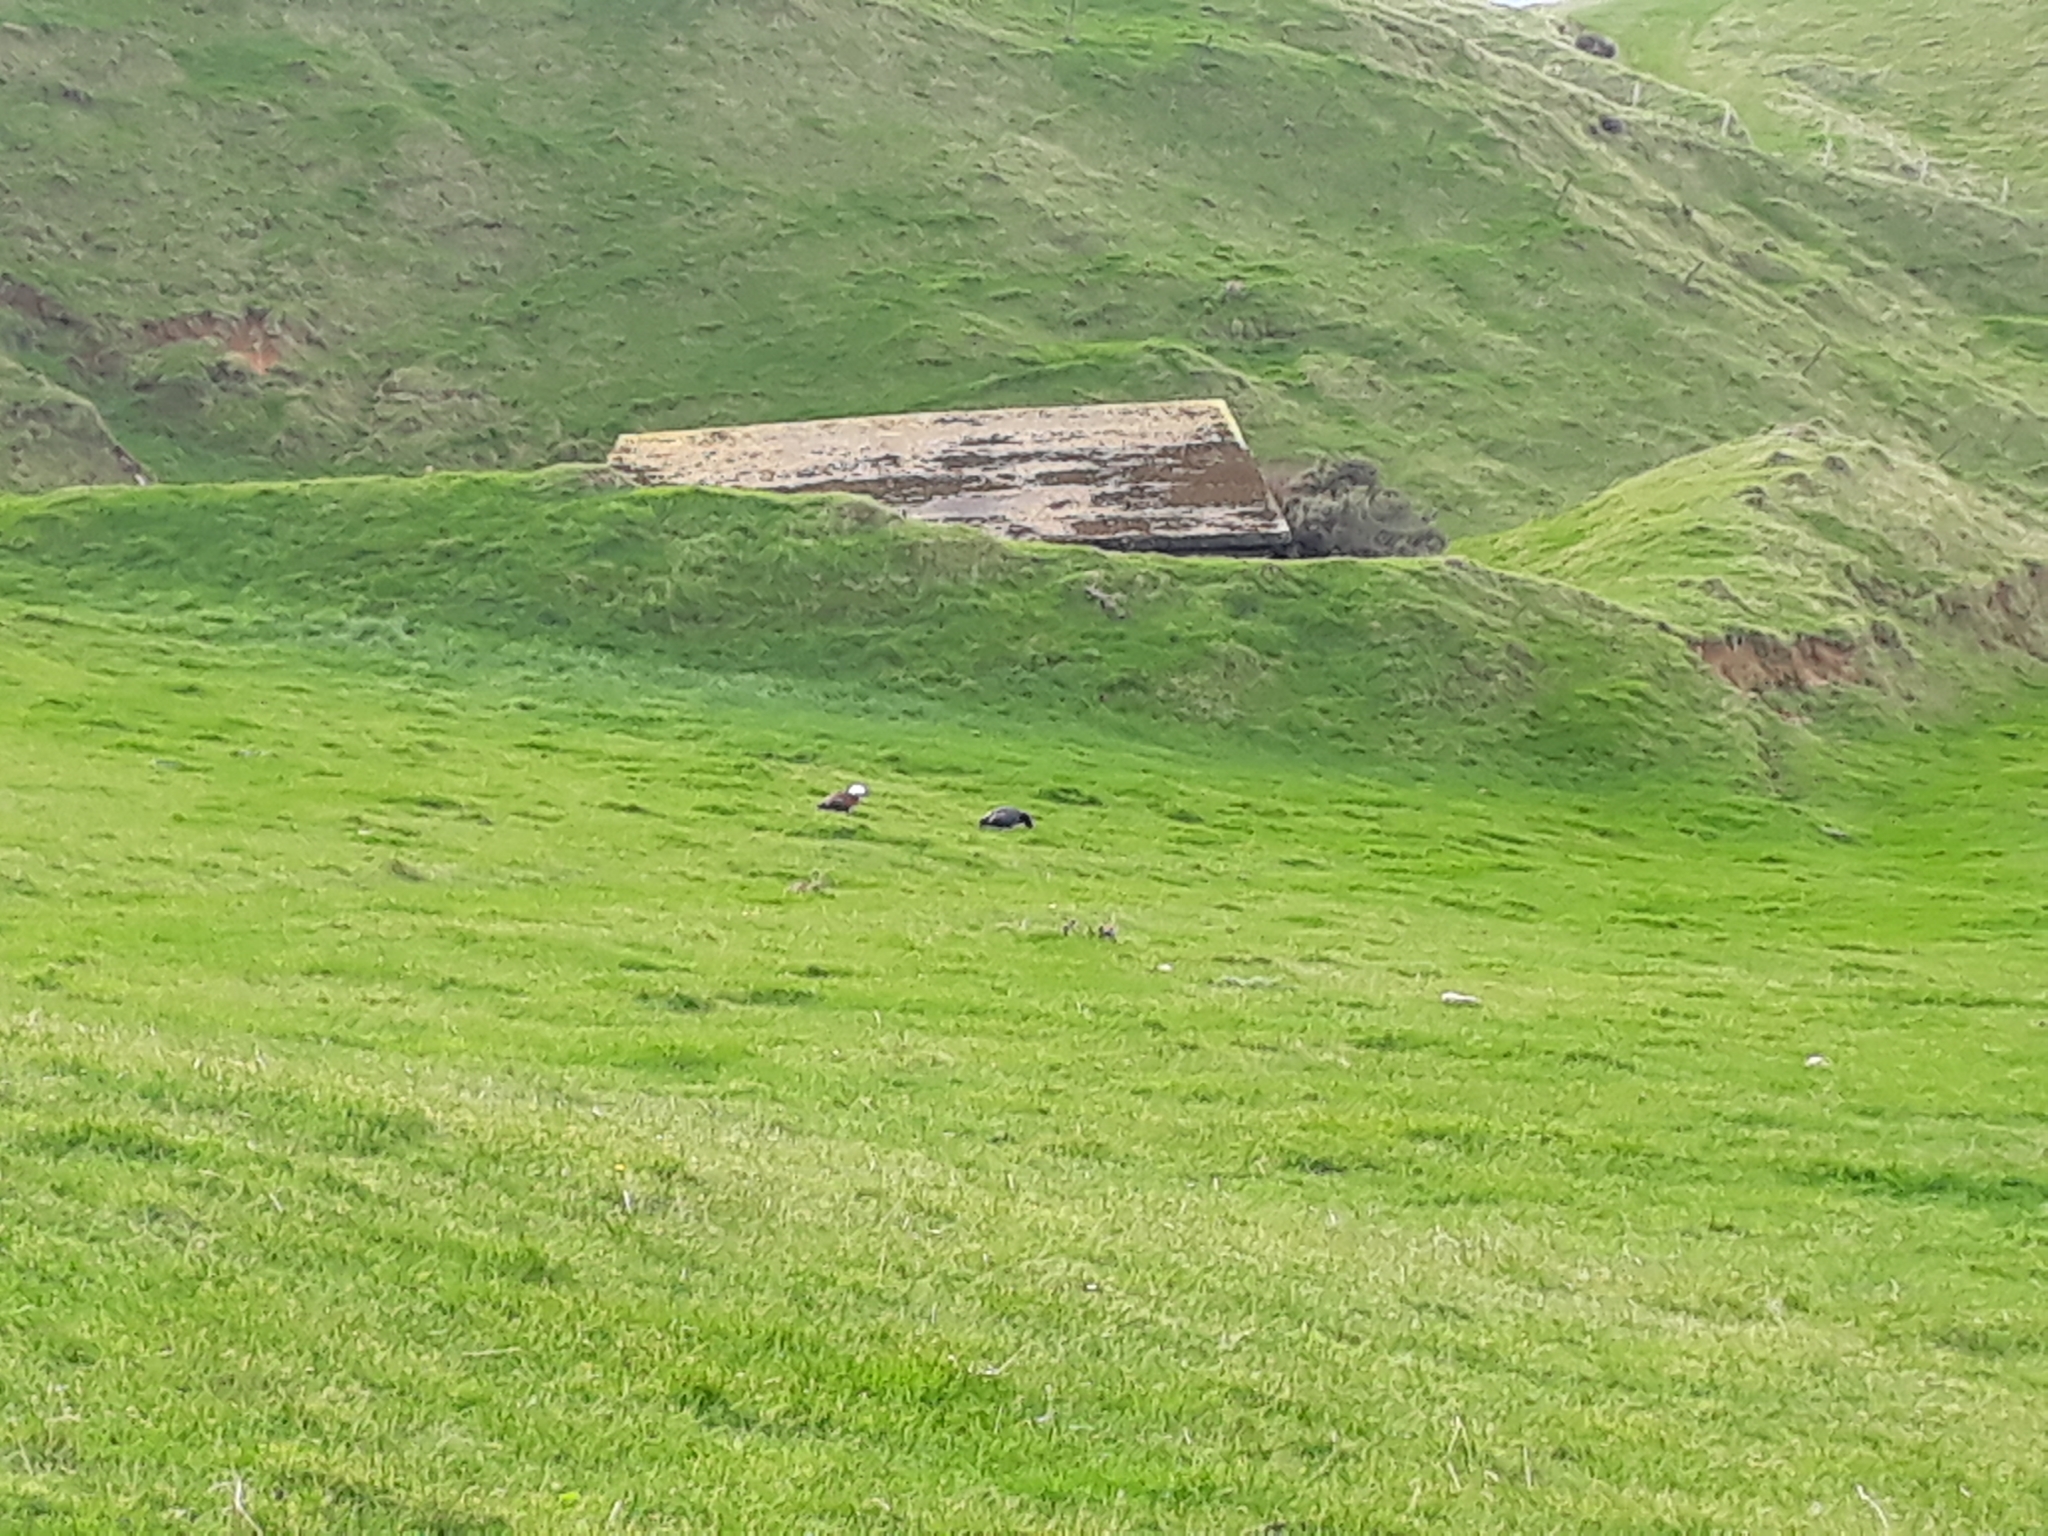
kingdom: Animalia
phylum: Chordata
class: Aves
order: Anseriformes
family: Anatidae
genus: Tadorna
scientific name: Tadorna variegata
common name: Paradise shelduck
